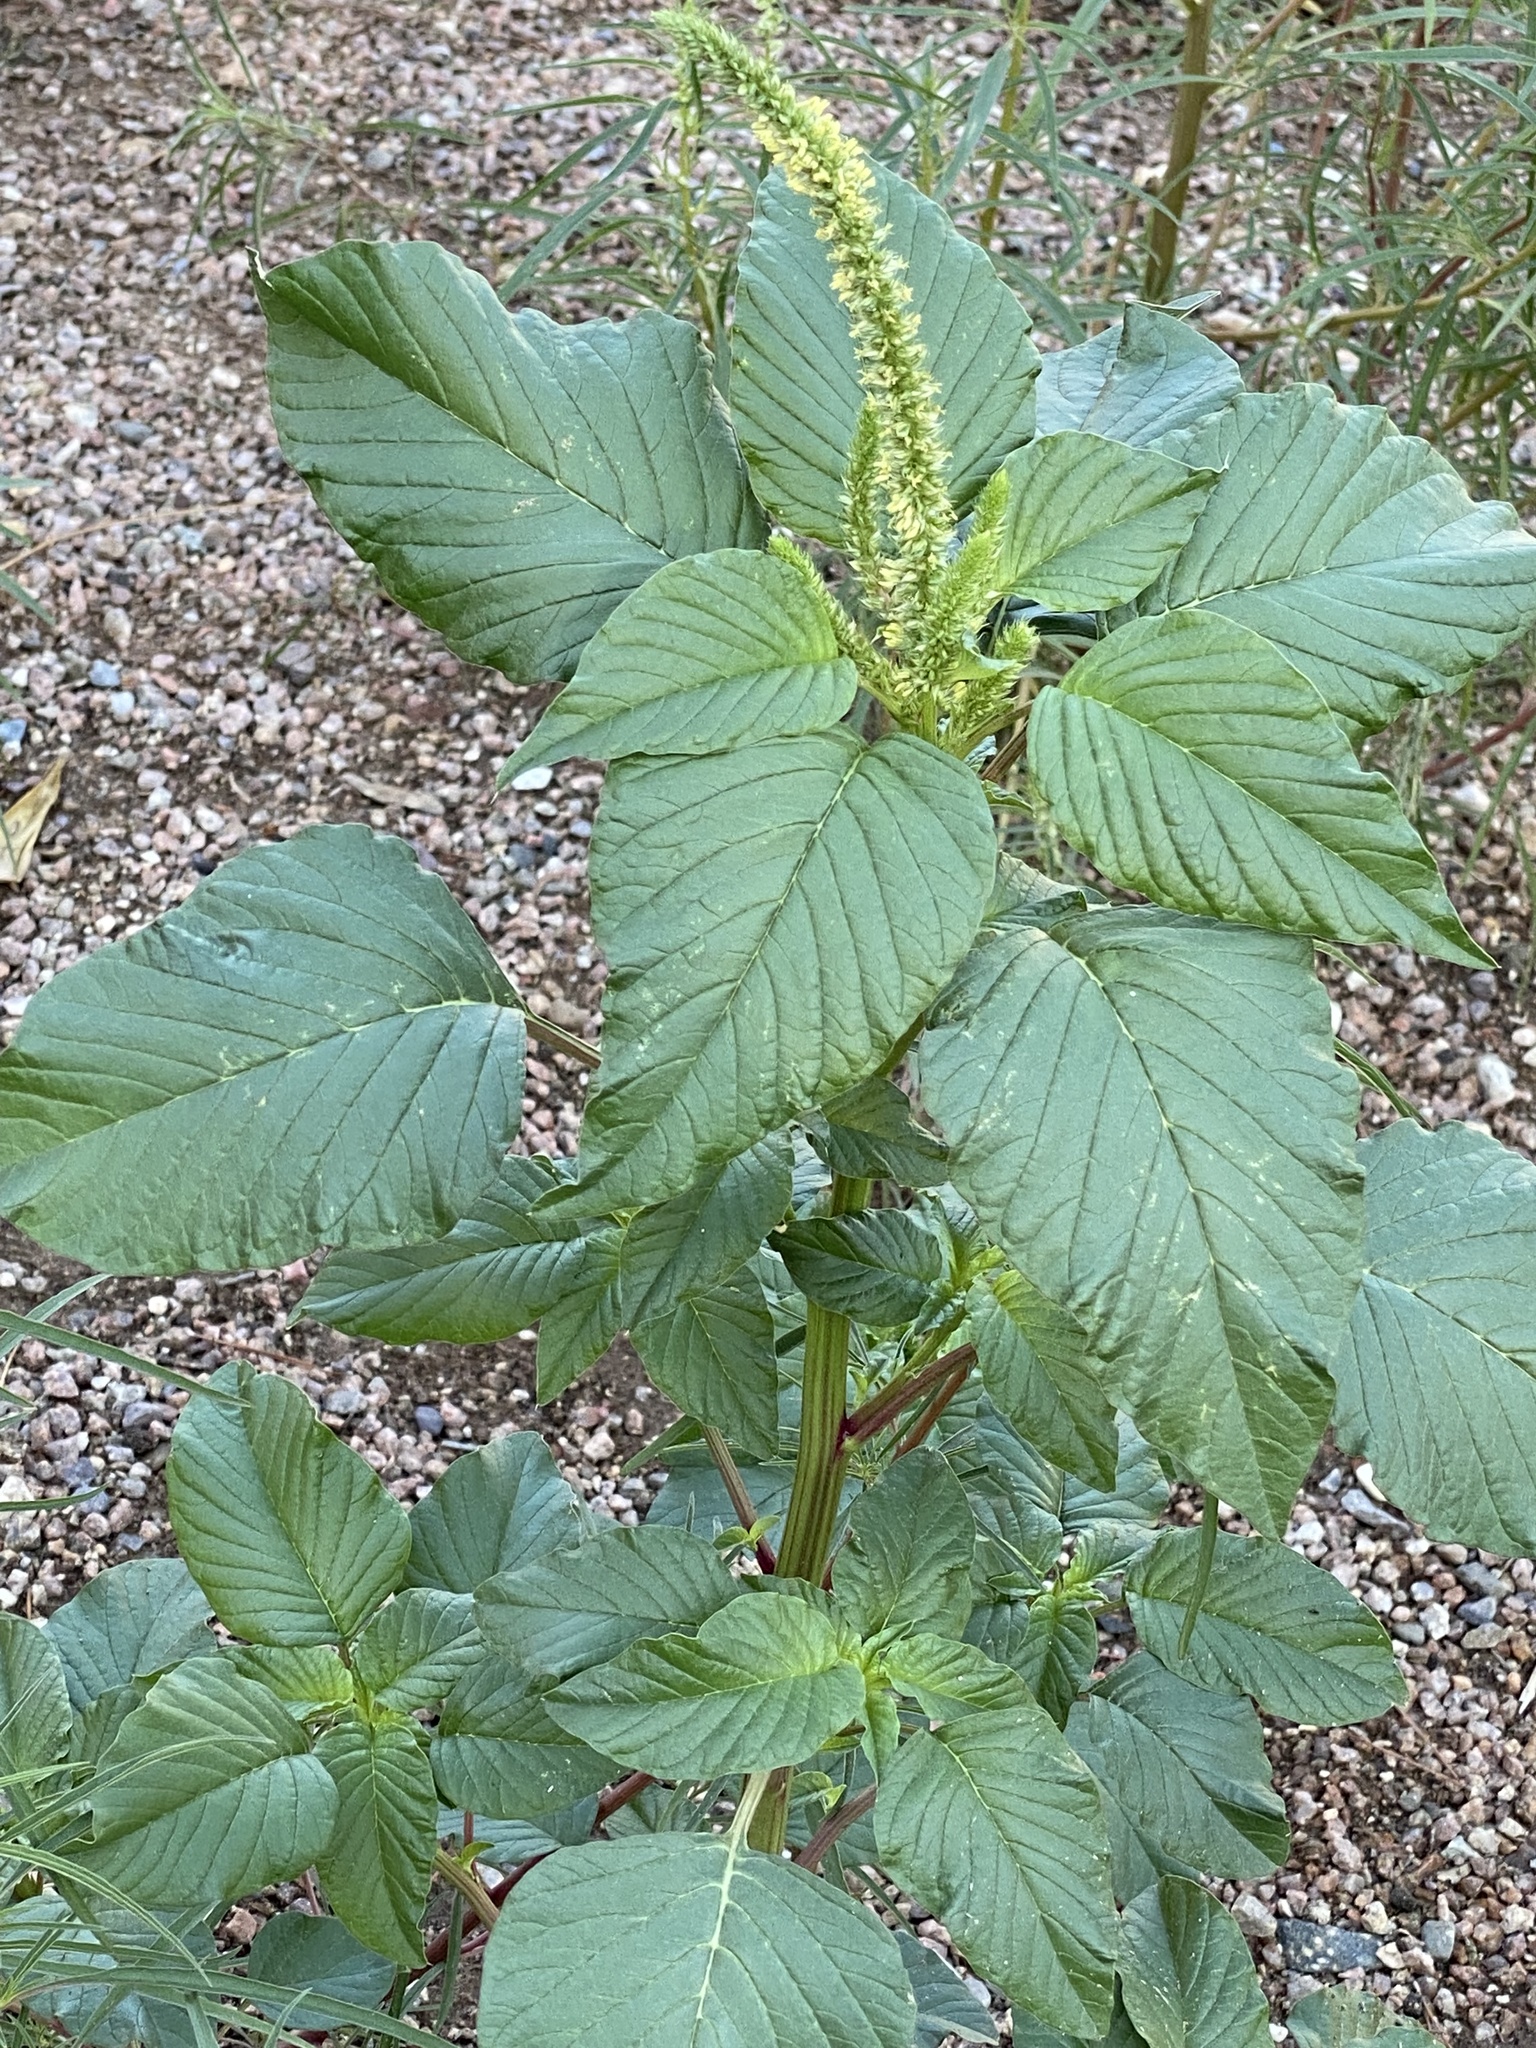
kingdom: Plantae
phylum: Tracheophyta
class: Magnoliopsida
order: Caryophyllales
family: Amaranthaceae
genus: Amaranthus
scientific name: Amaranthus palmeri
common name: Dioecious amaranth
